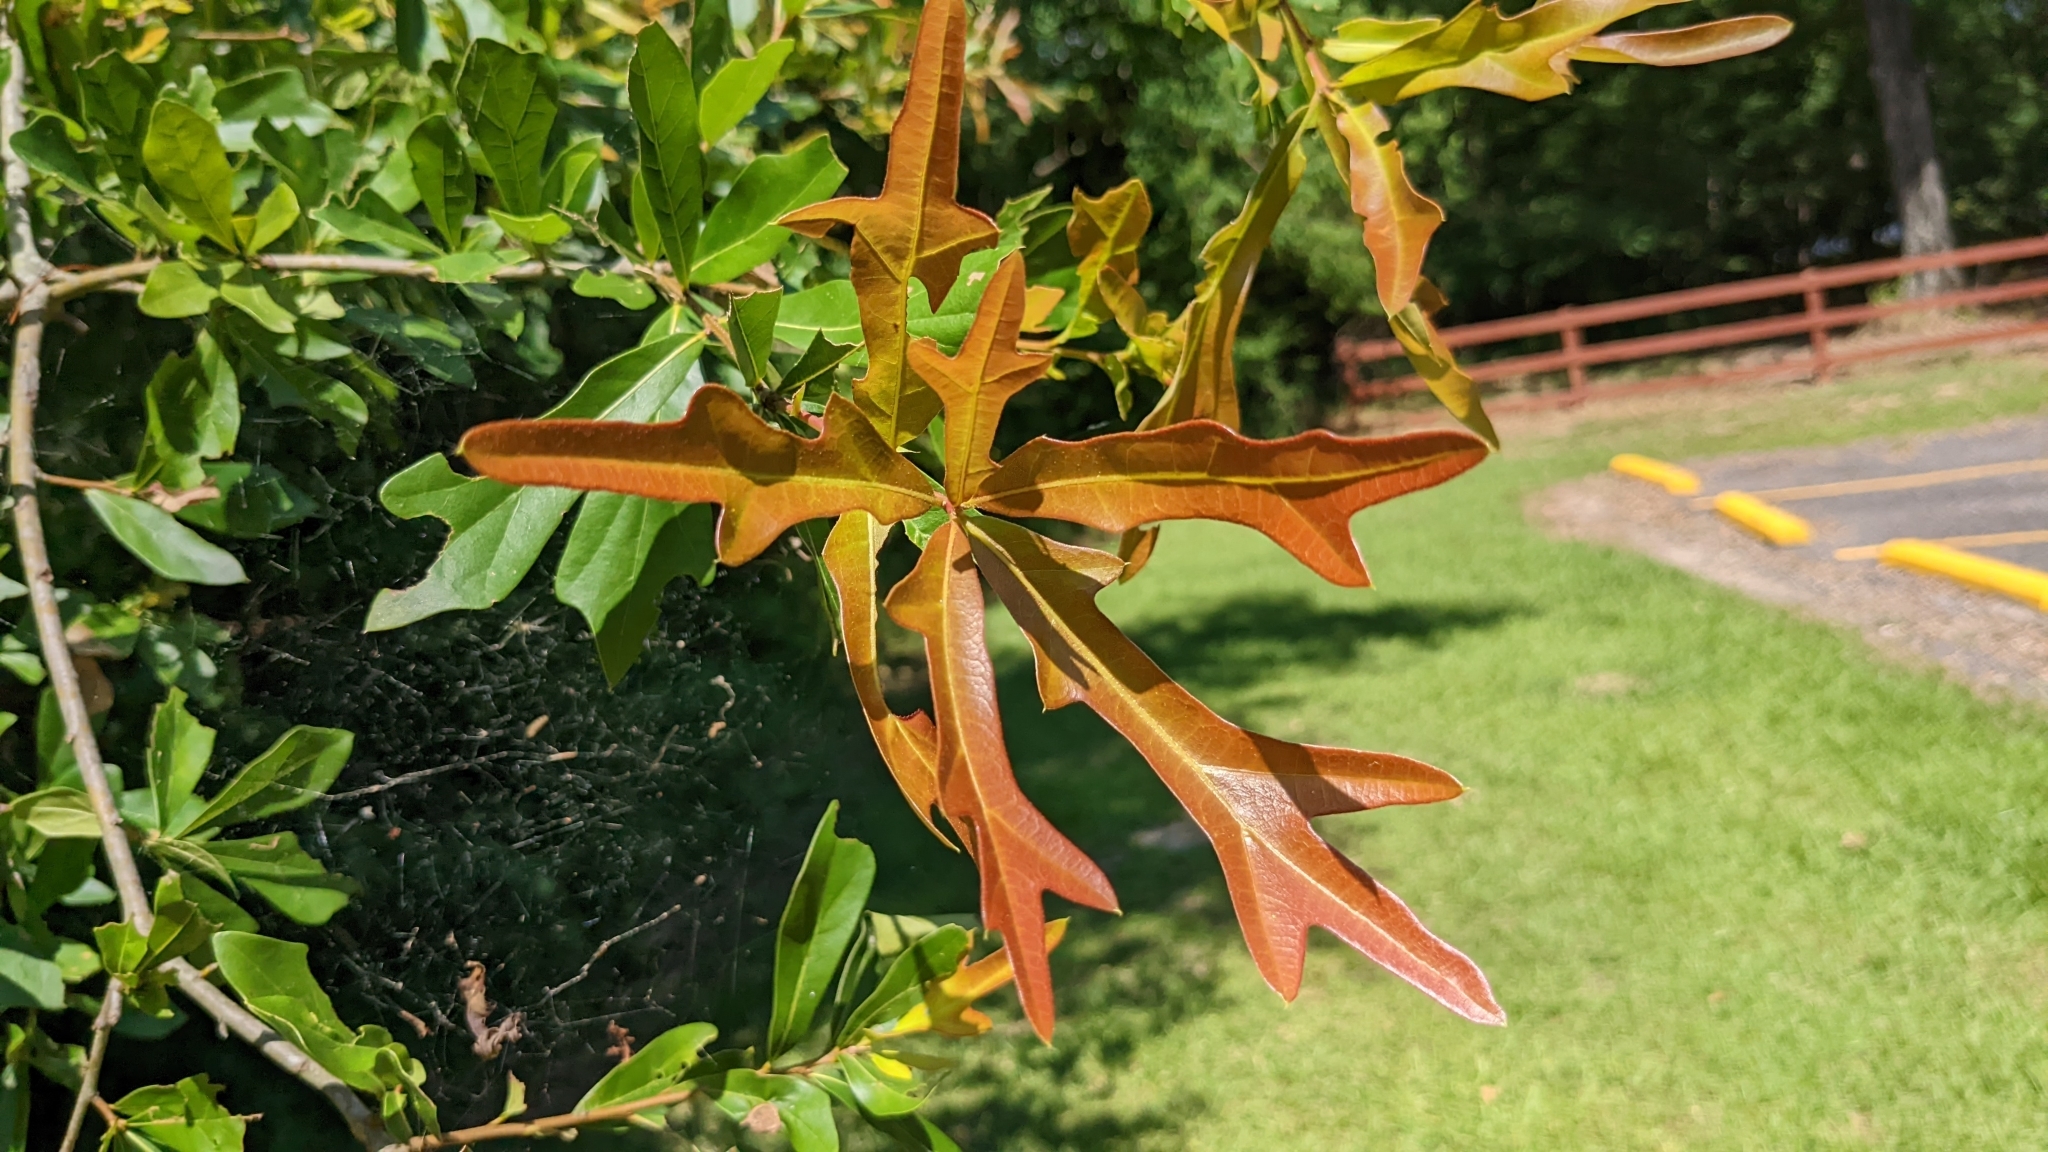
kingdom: Plantae
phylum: Tracheophyta
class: Magnoliopsida
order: Fagales
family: Fagaceae
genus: Quercus
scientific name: Quercus nigra
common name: Water oak
